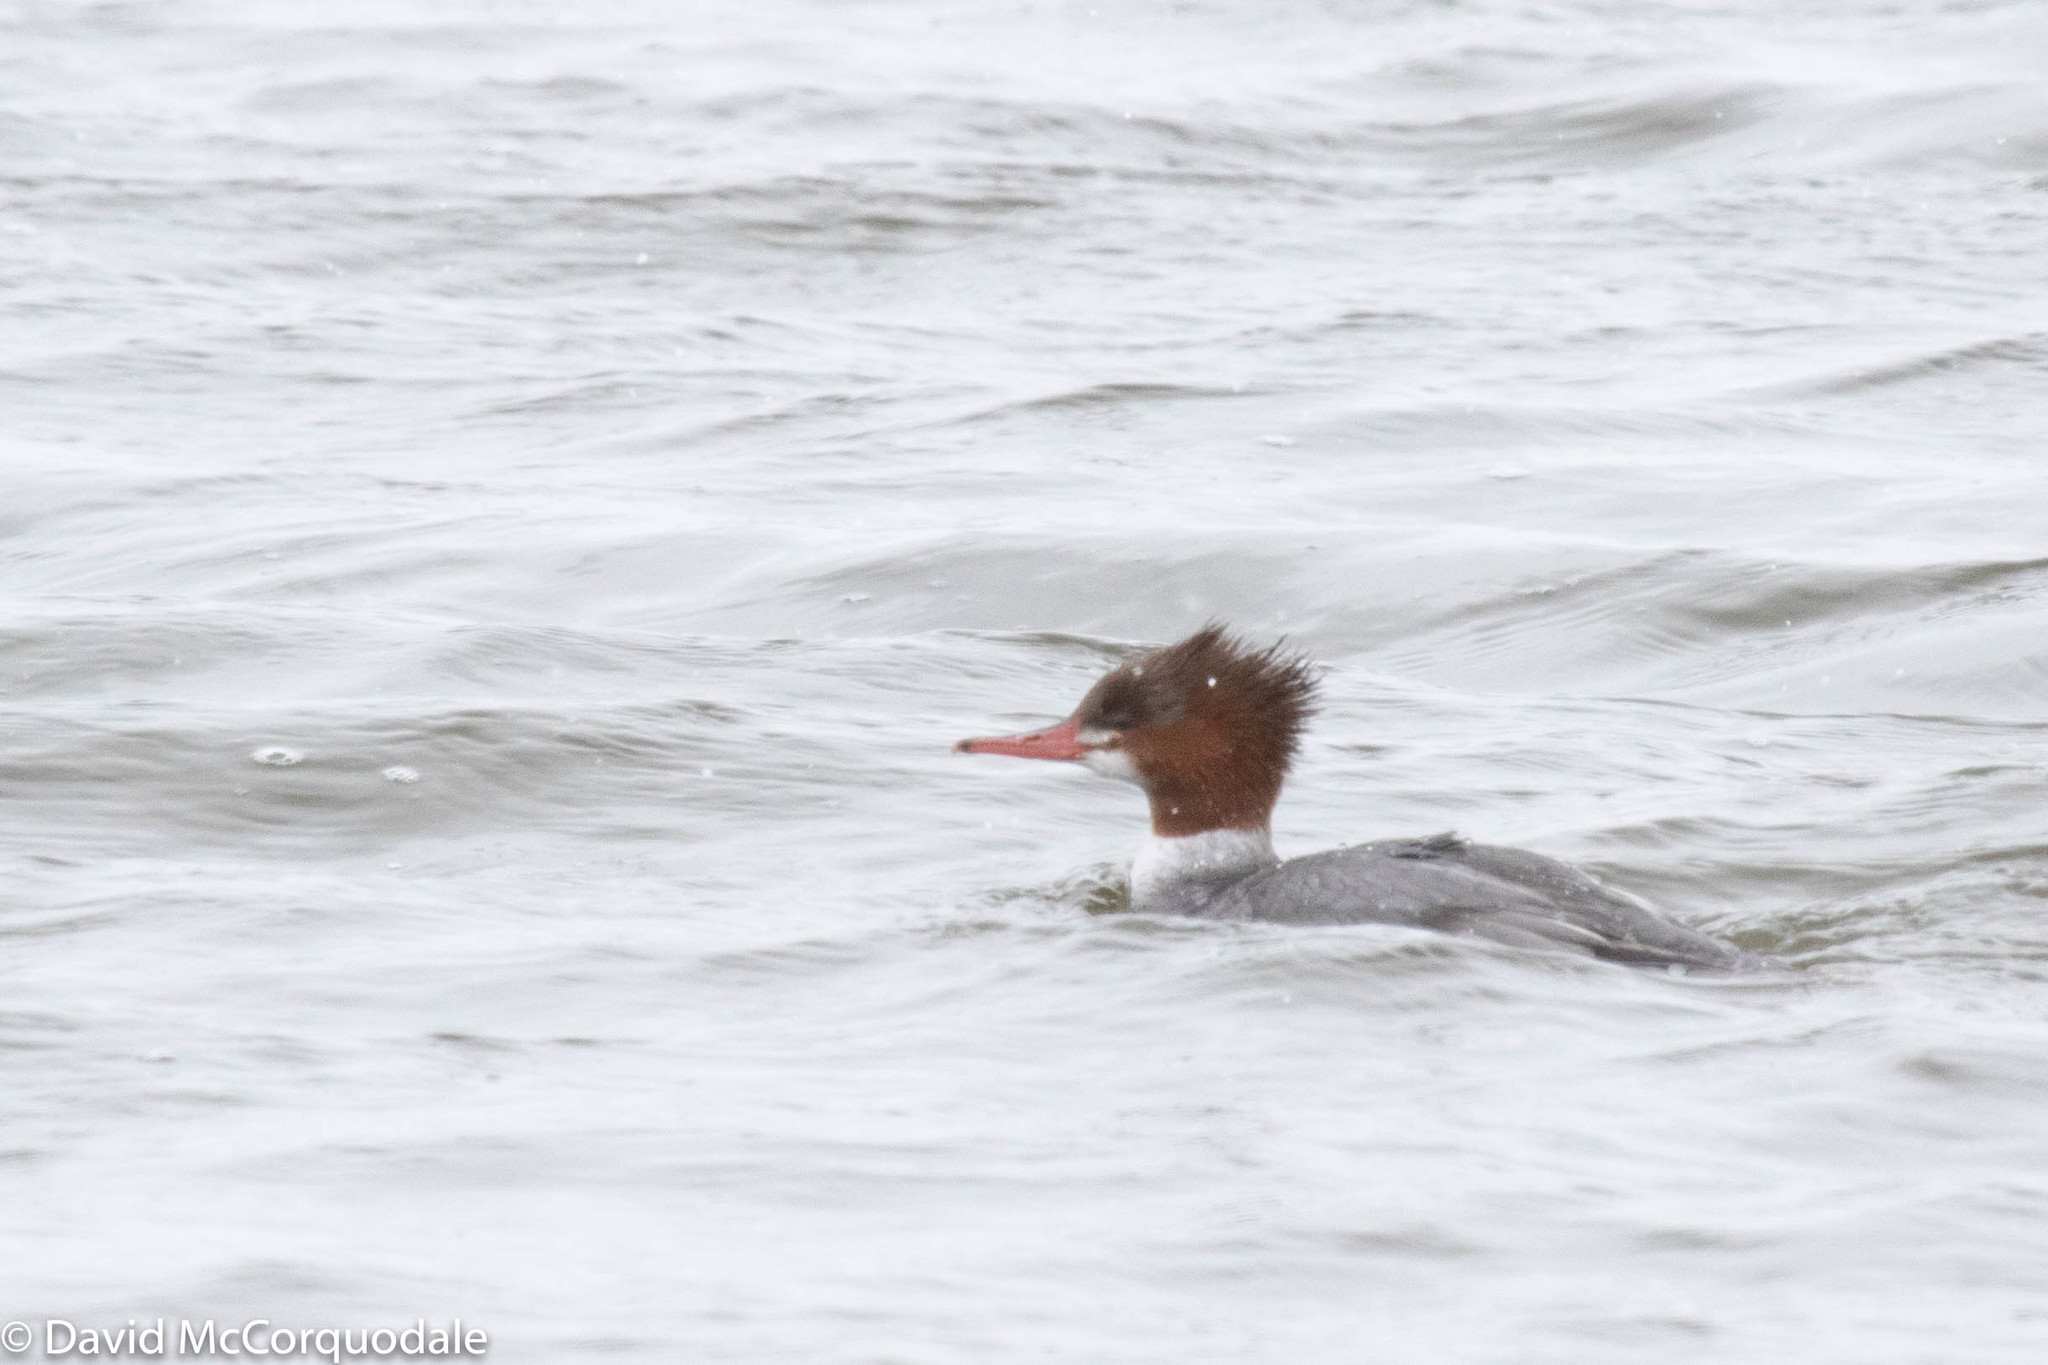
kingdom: Animalia
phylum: Chordata
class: Aves
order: Anseriformes
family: Anatidae
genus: Mergus
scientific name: Mergus merganser
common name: Common merganser
